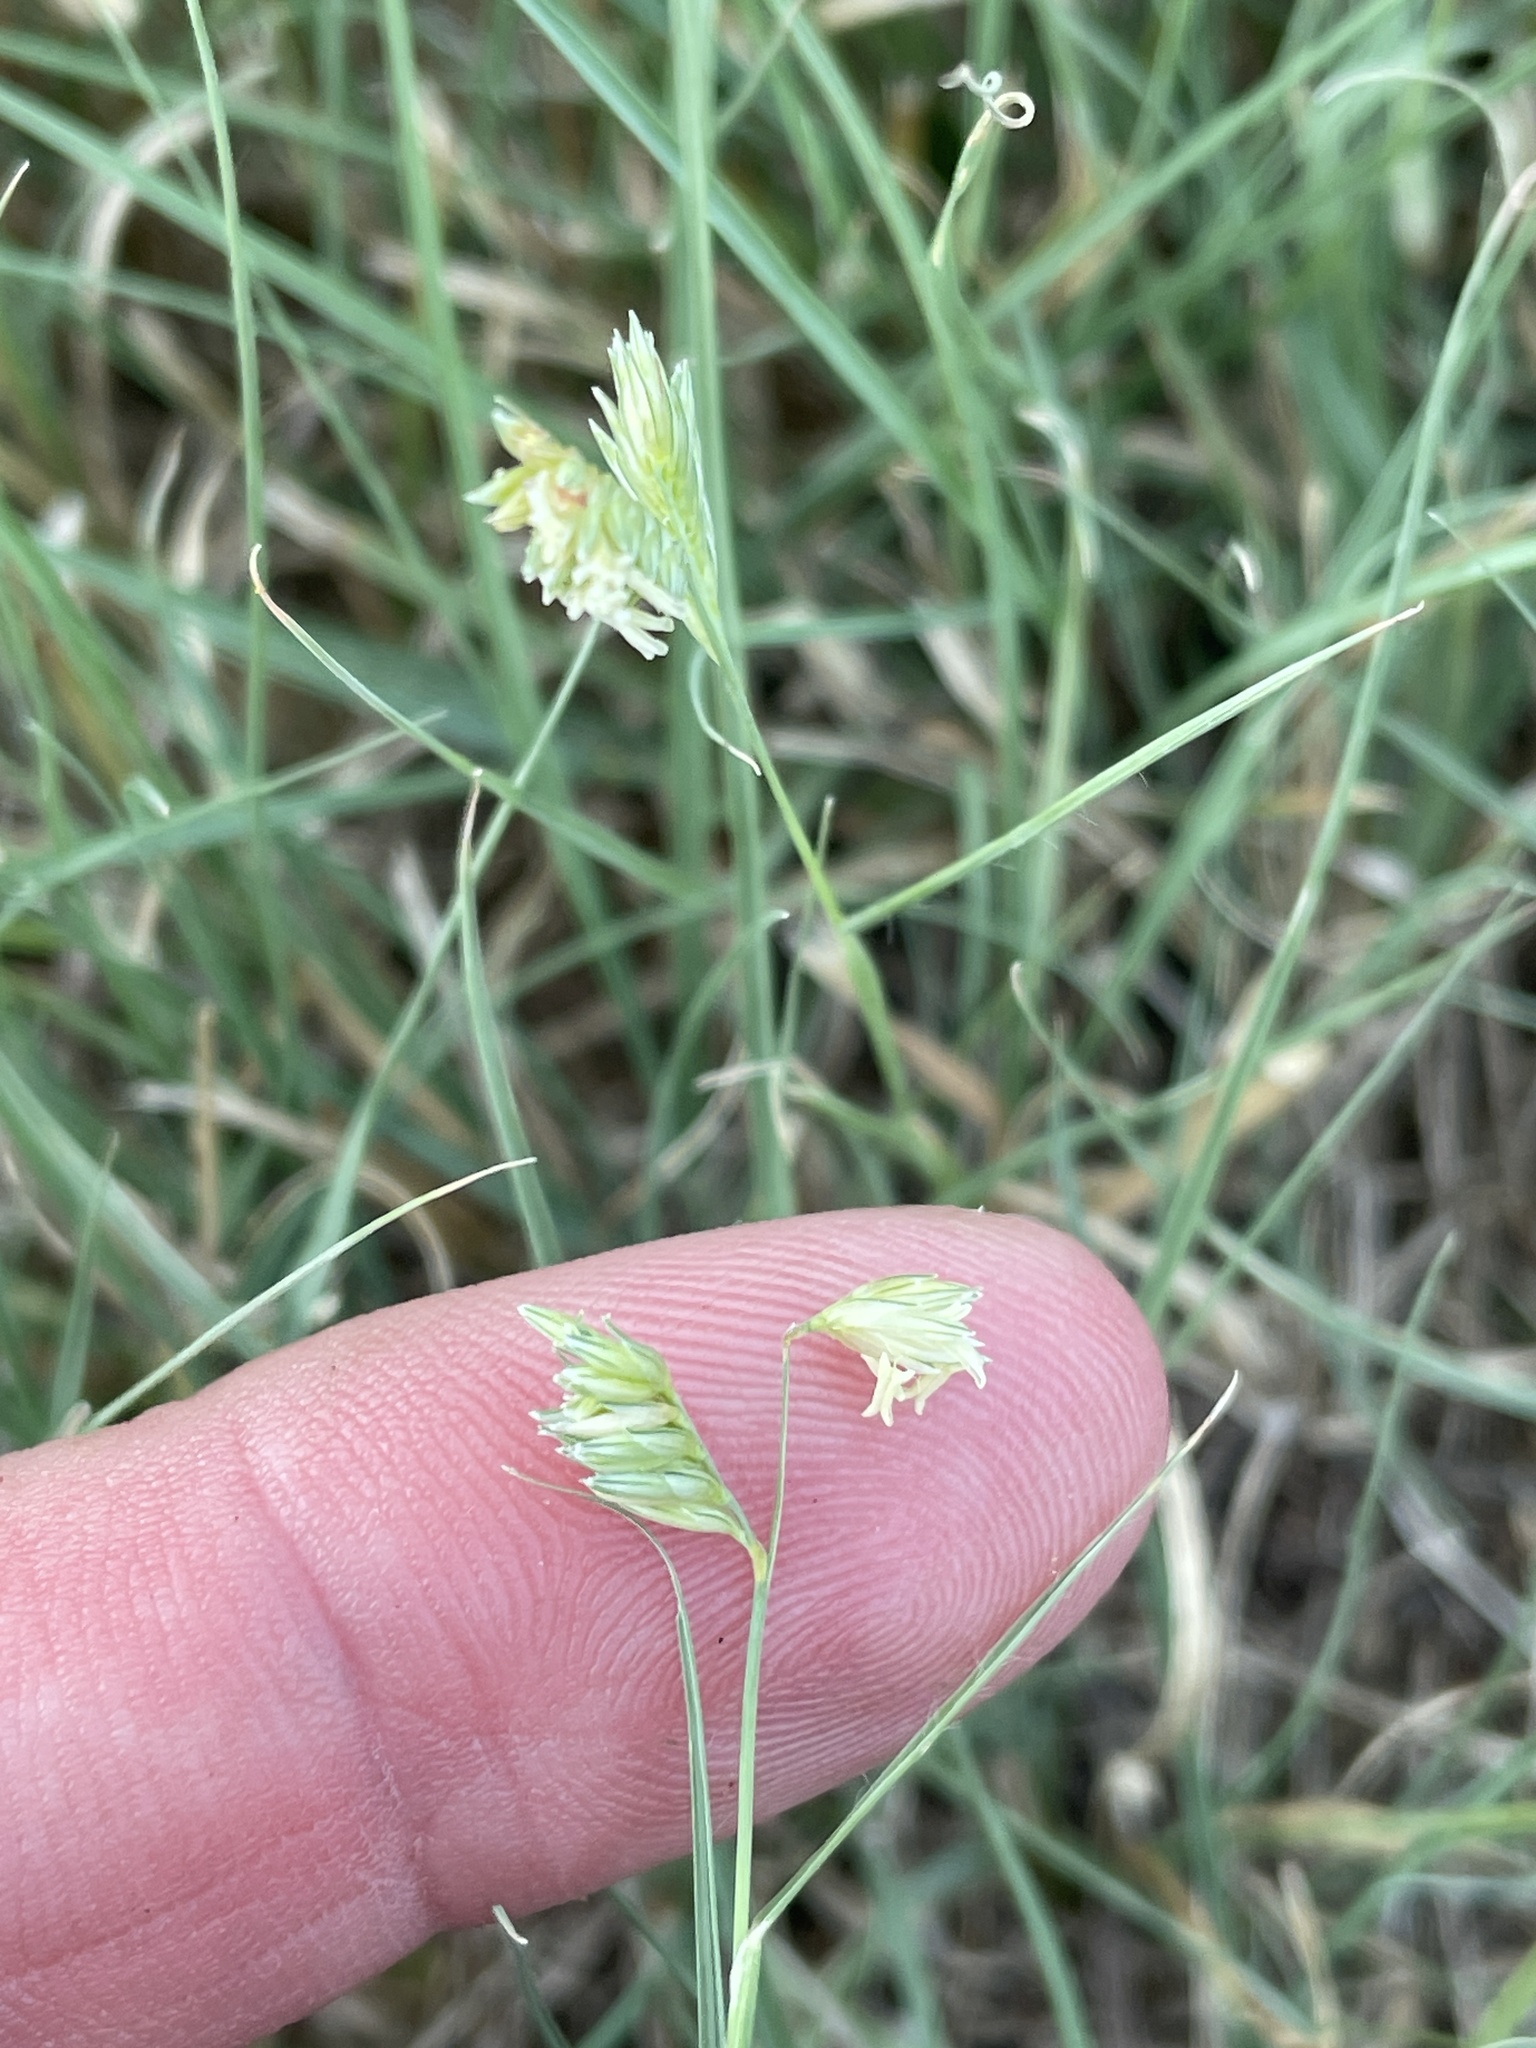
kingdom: Plantae
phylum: Tracheophyta
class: Liliopsida
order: Poales
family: Poaceae
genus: Bouteloua
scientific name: Bouteloua dactyloides
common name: Buffalo grass
